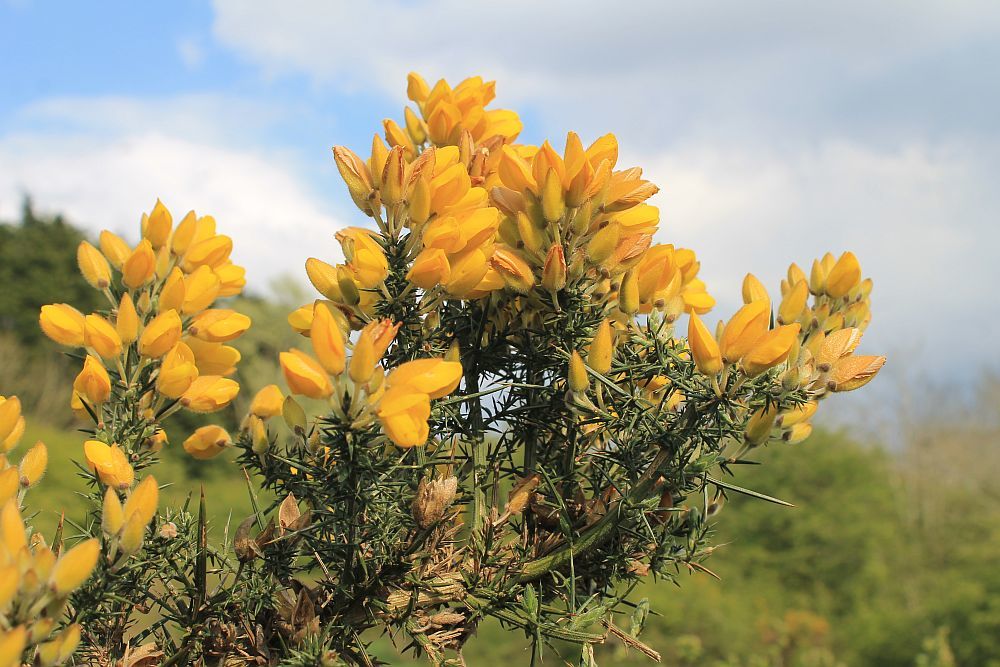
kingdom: Plantae
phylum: Tracheophyta
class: Magnoliopsida
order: Fabales
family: Fabaceae
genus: Ulex
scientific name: Ulex europaeus
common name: Common gorse
